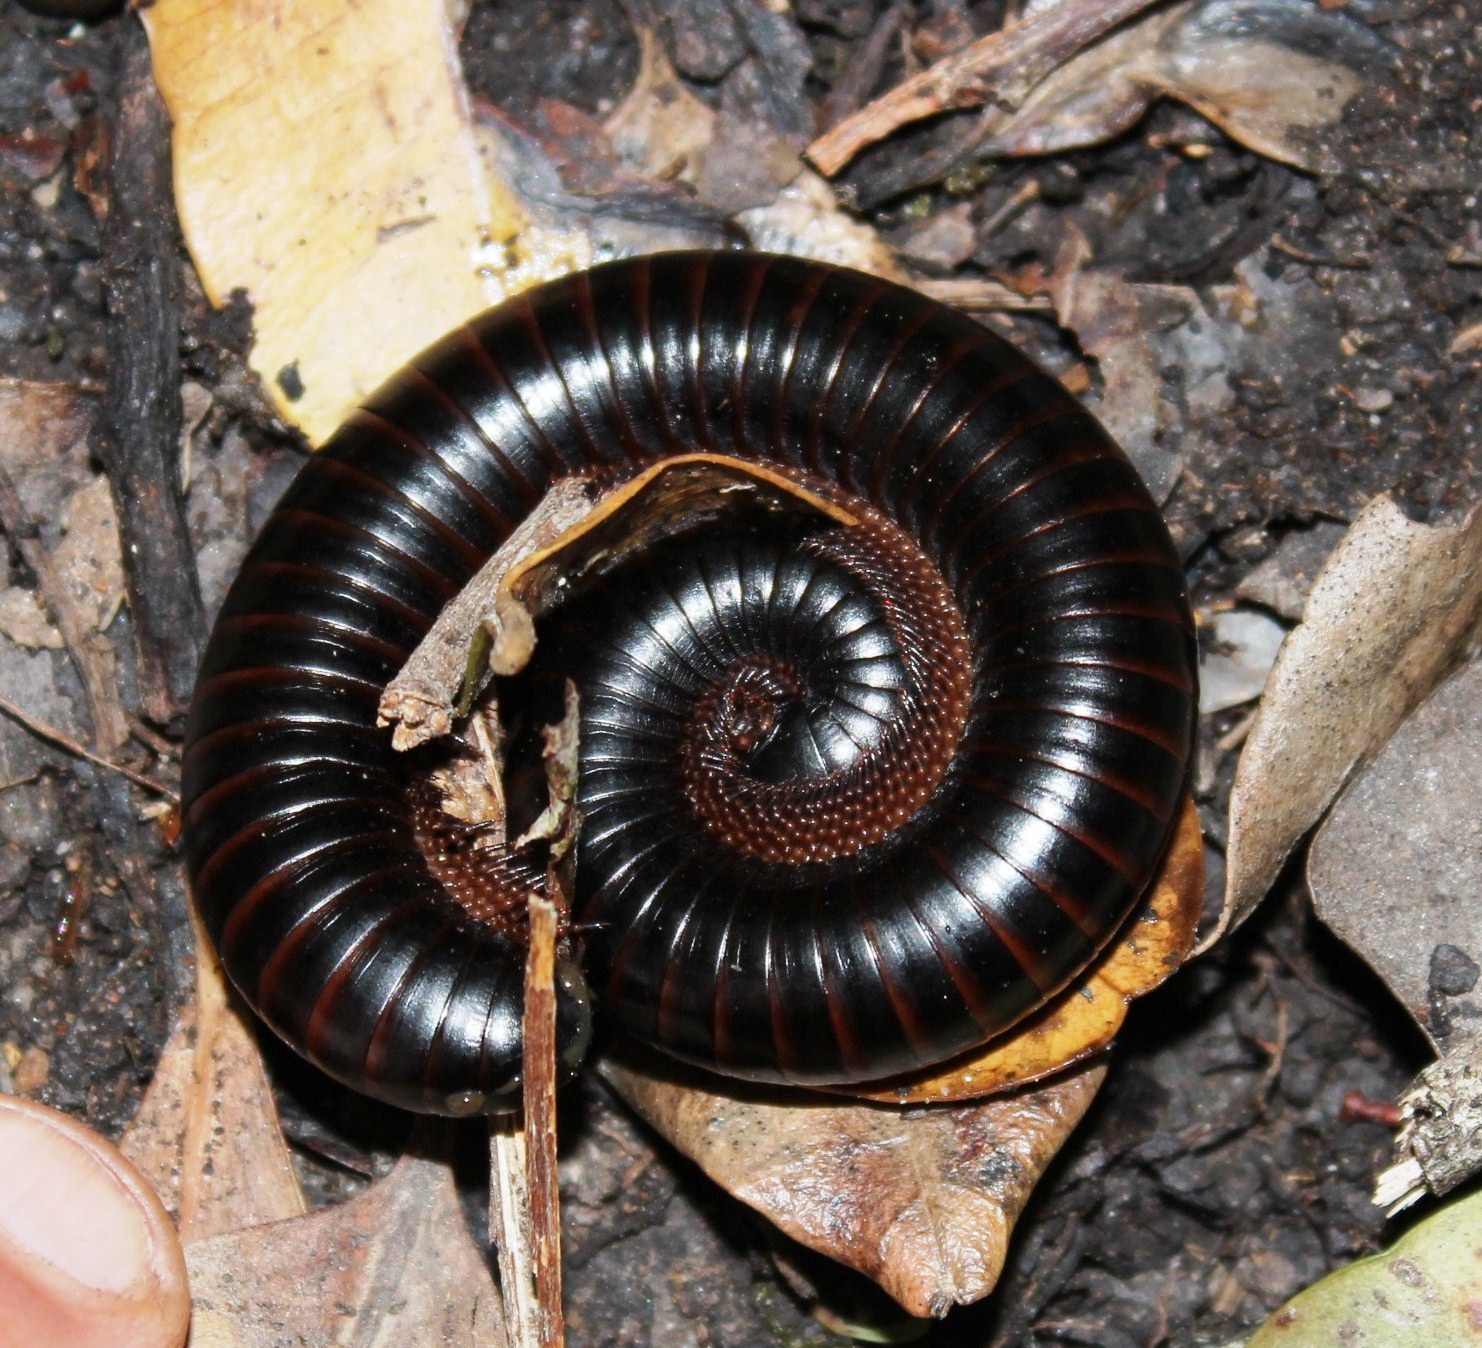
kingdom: Animalia
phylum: Arthropoda
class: Diplopoda
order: Spirostreptida
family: Spirostreptidae
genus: Doratogonus
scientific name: Doratogonus annulipes
